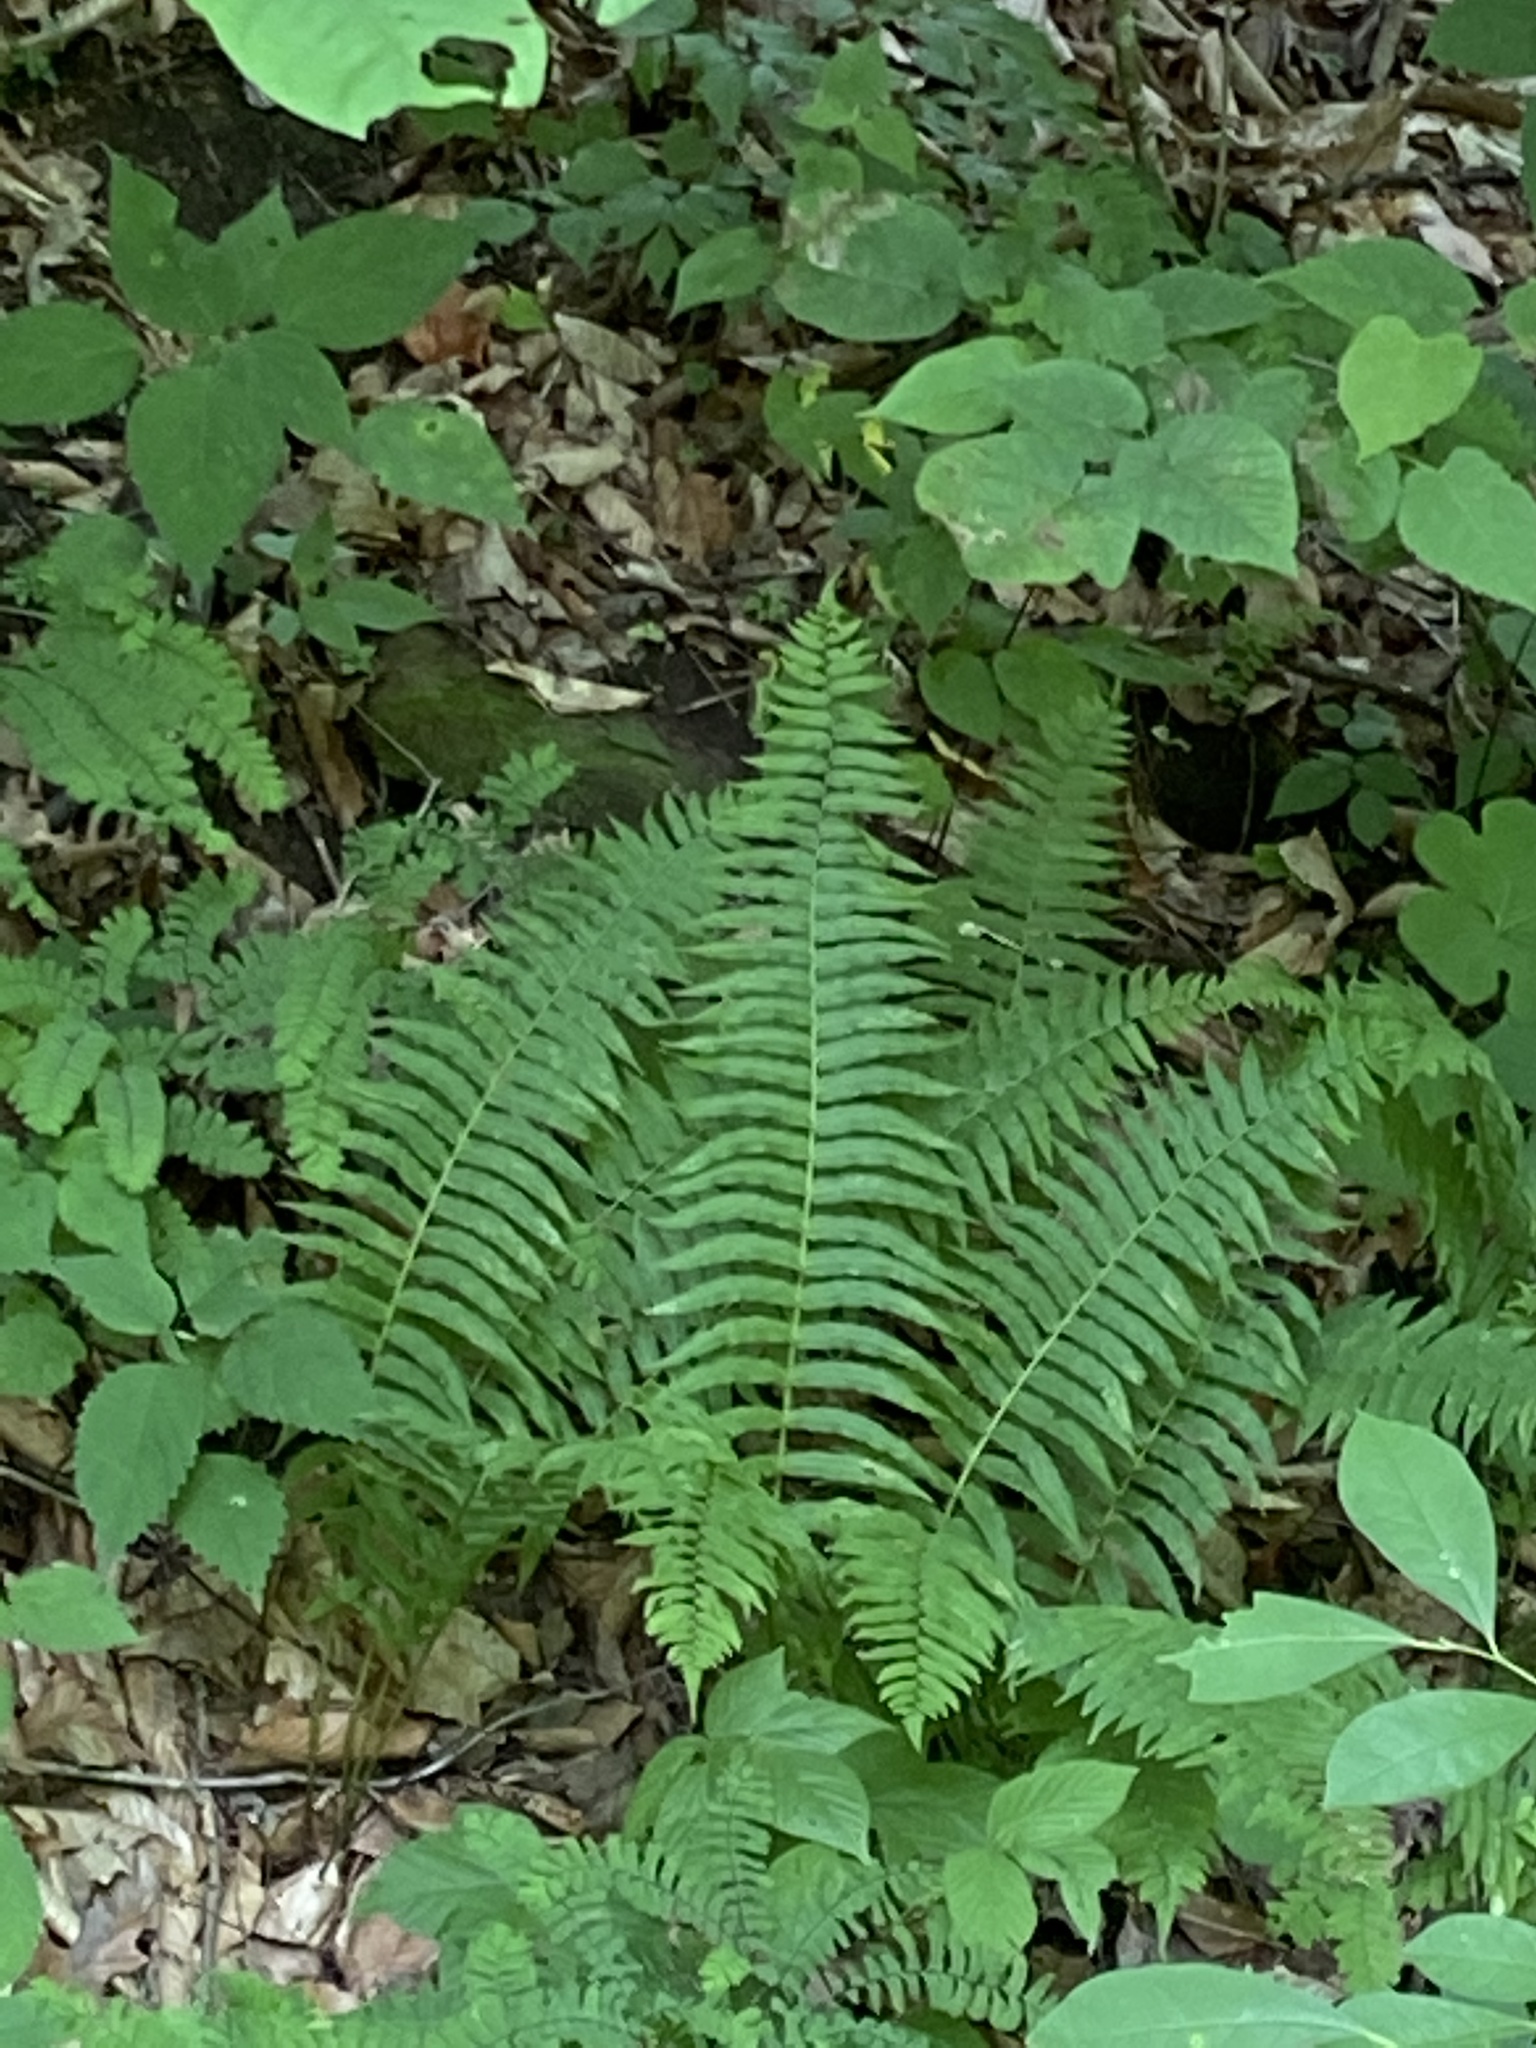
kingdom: Plantae
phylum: Tracheophyta
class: Polypodiopsida
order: Polypodiales
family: Diplaziopsidaceae
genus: Homalosorus
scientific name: Homalosorus pycnocarpos
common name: Glade fern
